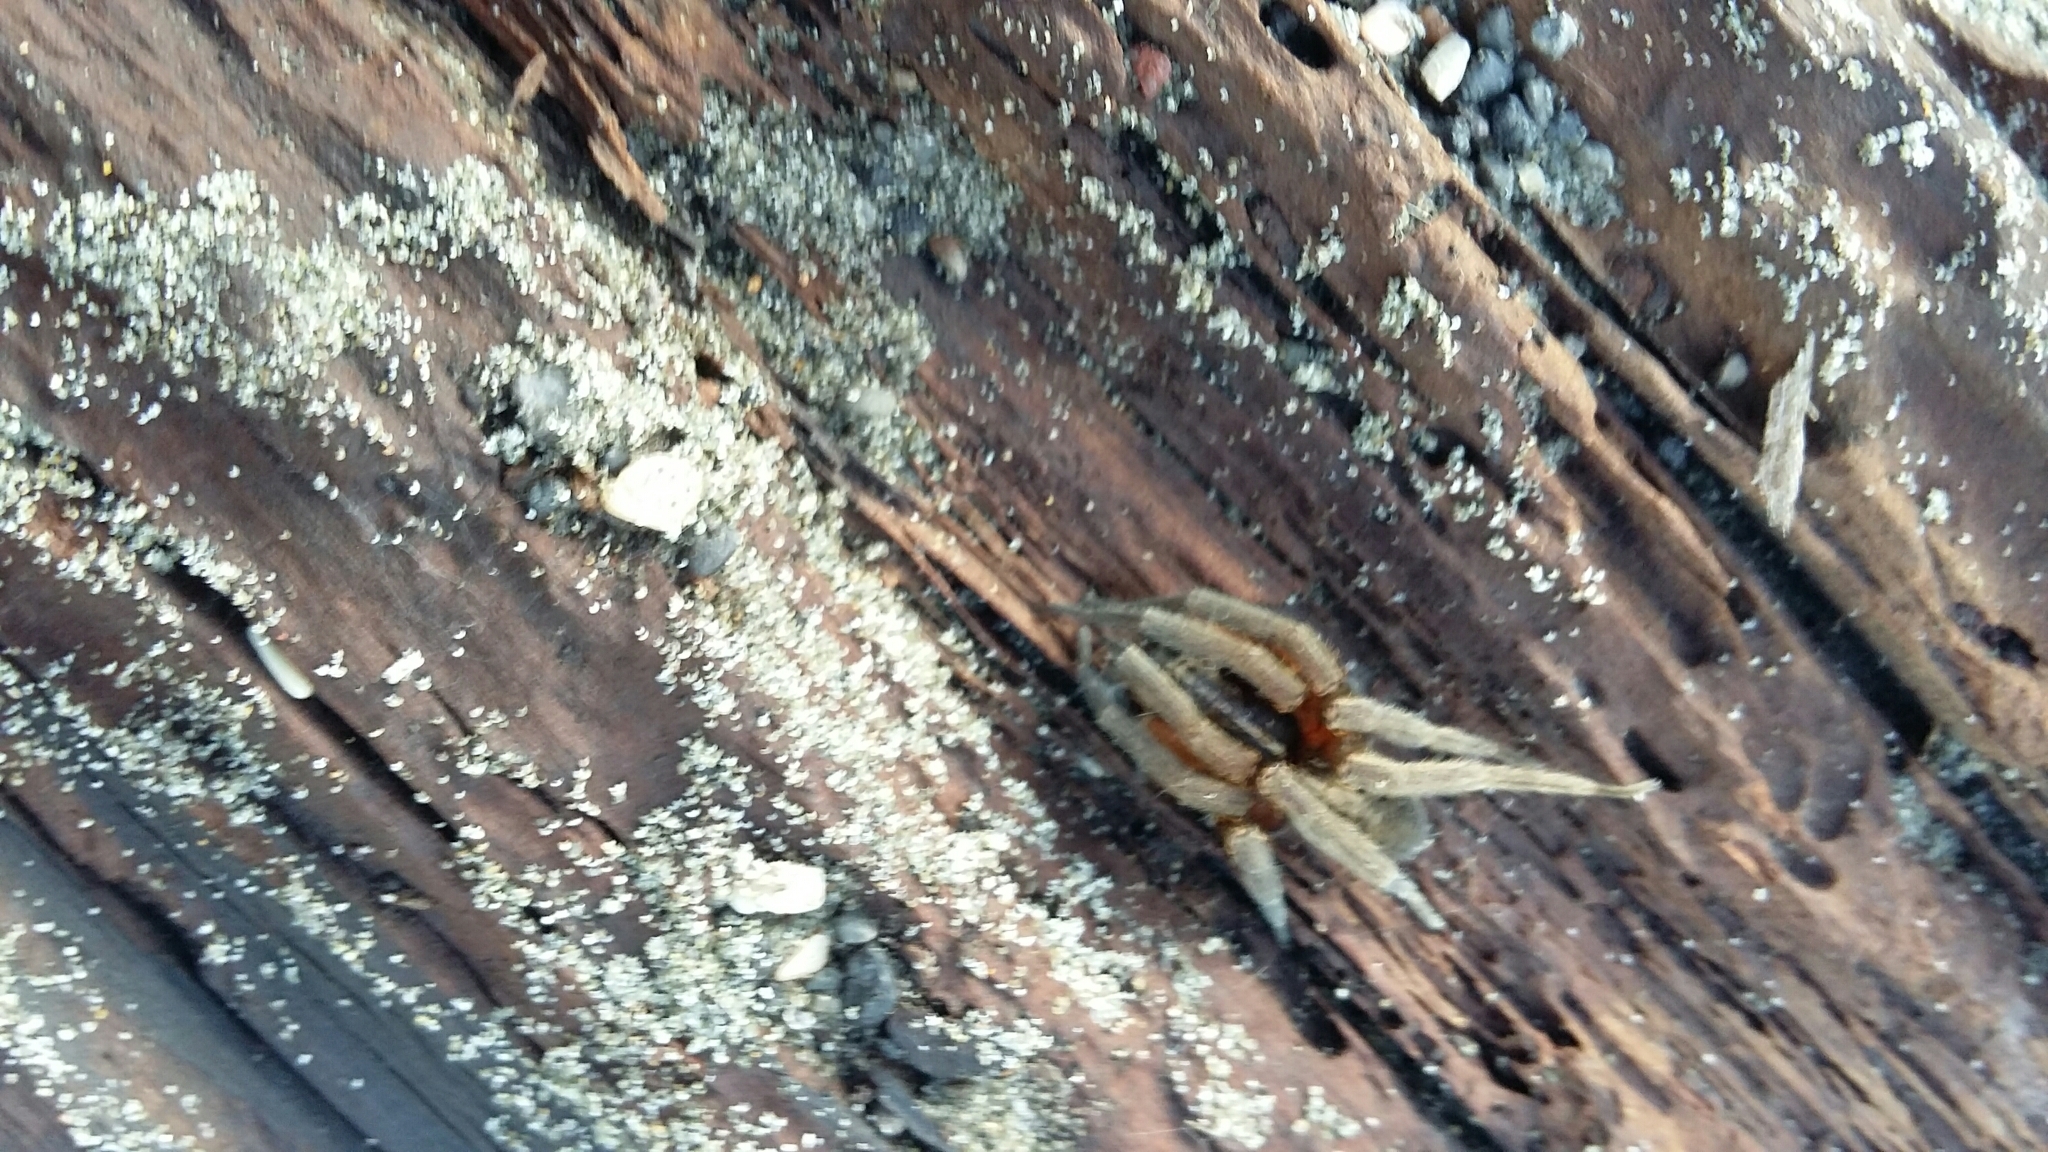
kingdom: Animalia
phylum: Arthropoda
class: Arachnida
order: Araneae
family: Pisauridae
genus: Dolomedes
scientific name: Dolomedes minor
